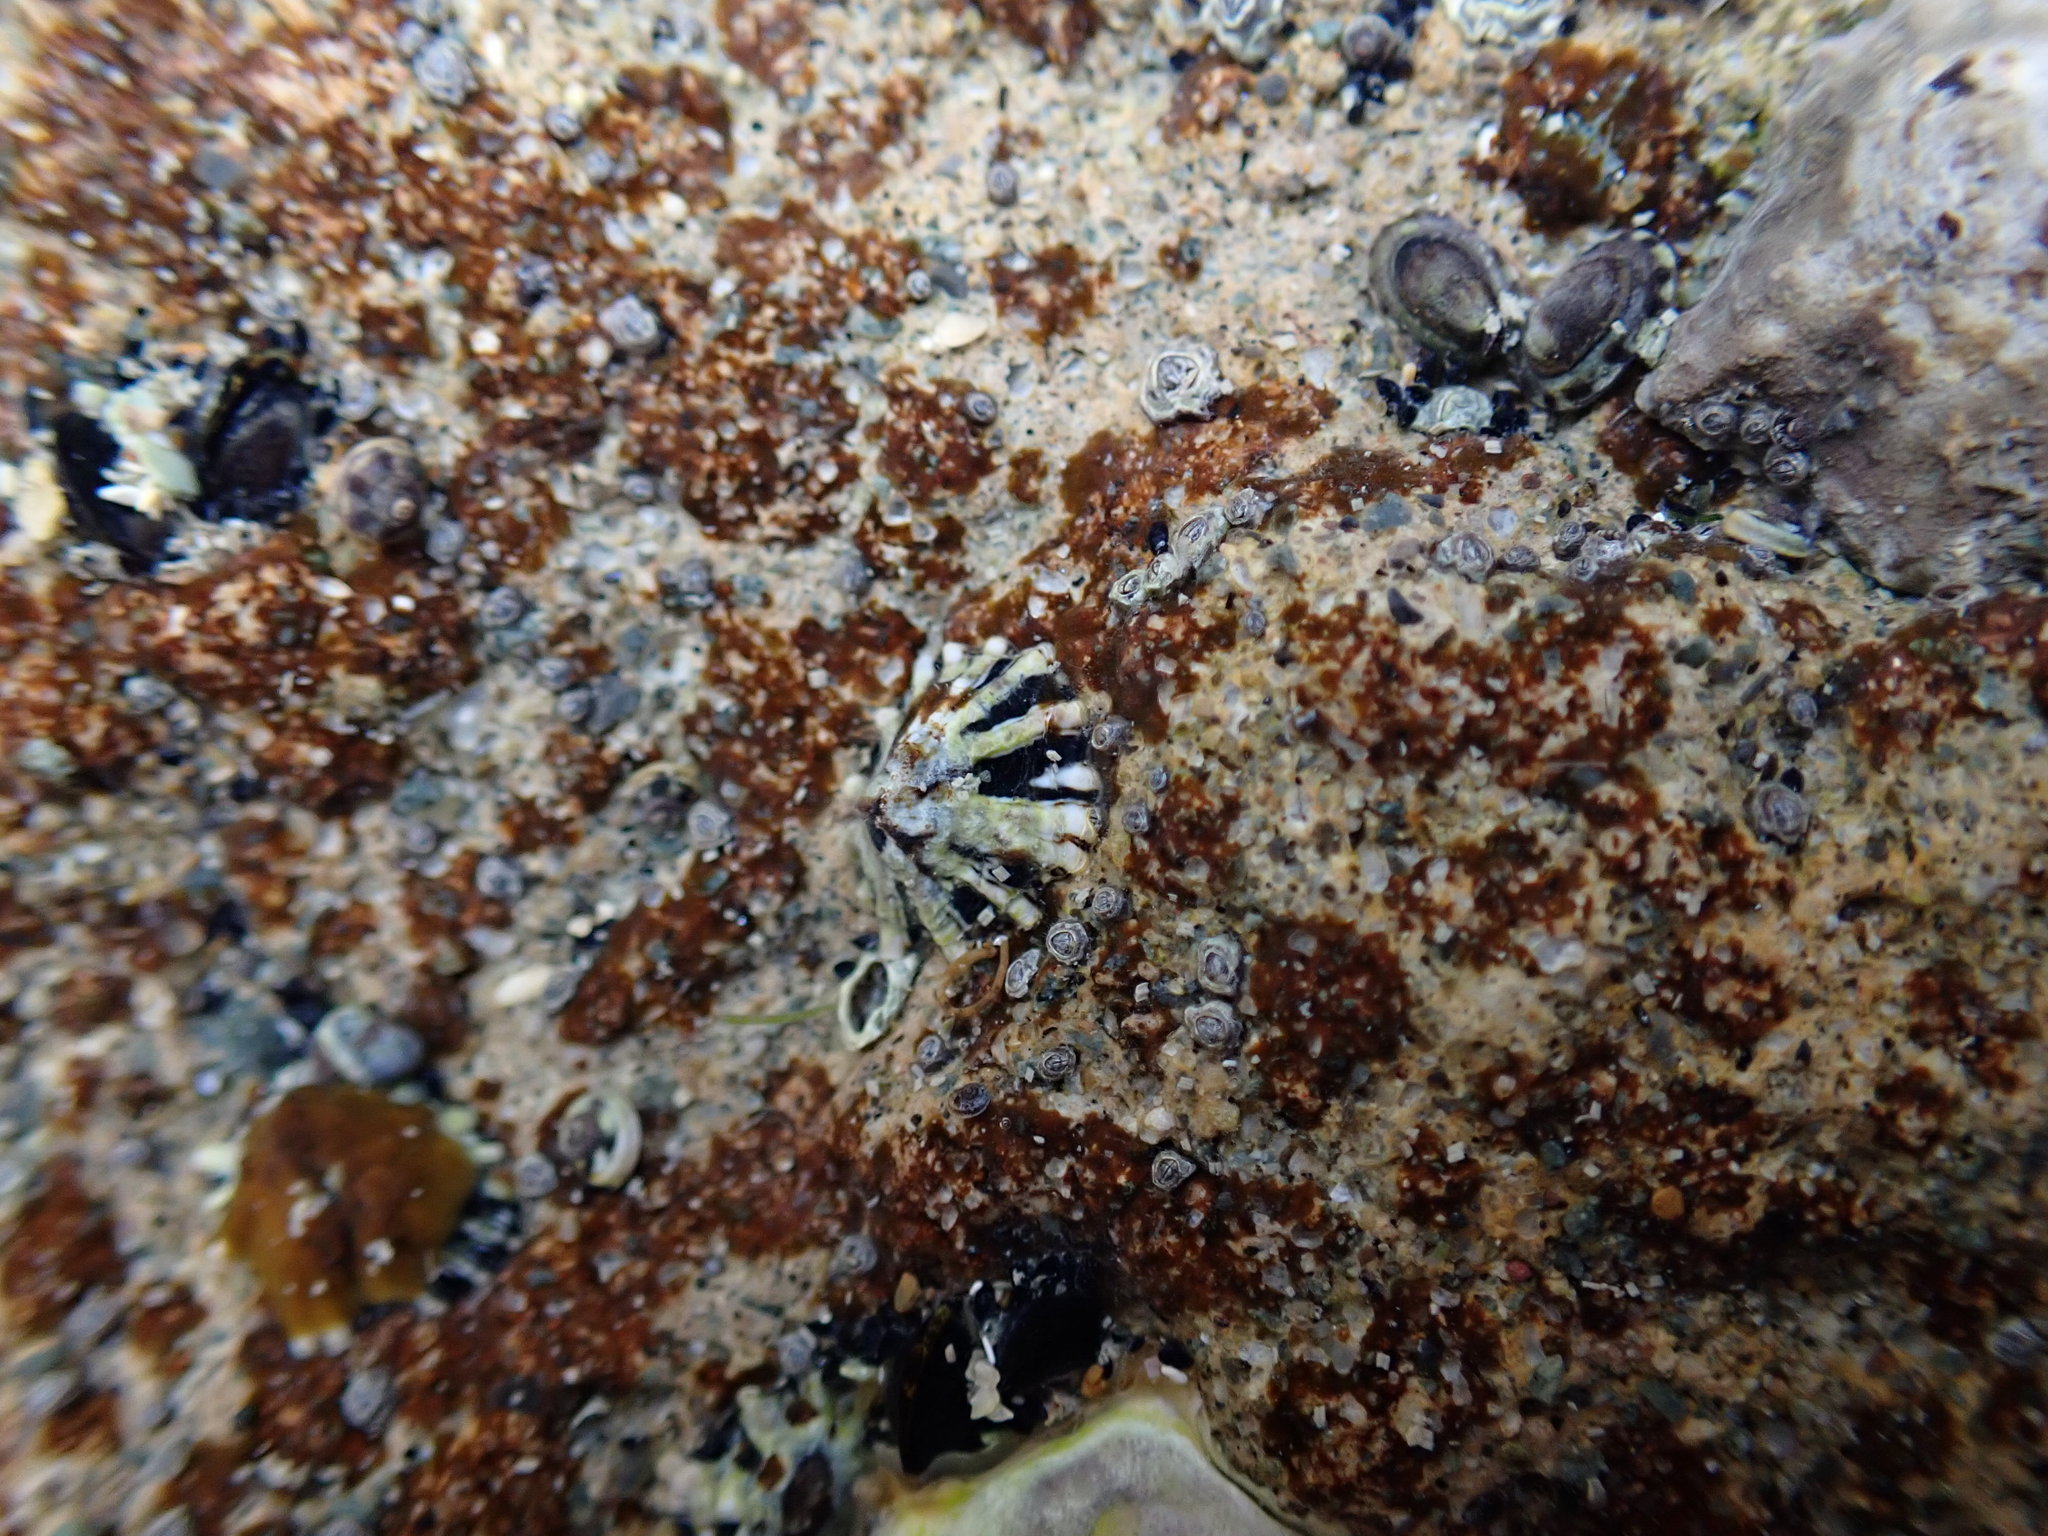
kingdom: Animalia
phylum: Mollusca
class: Gastropoda
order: Siphonariida
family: Siphonariidae
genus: Siphonaria
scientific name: Siphonaria australis
